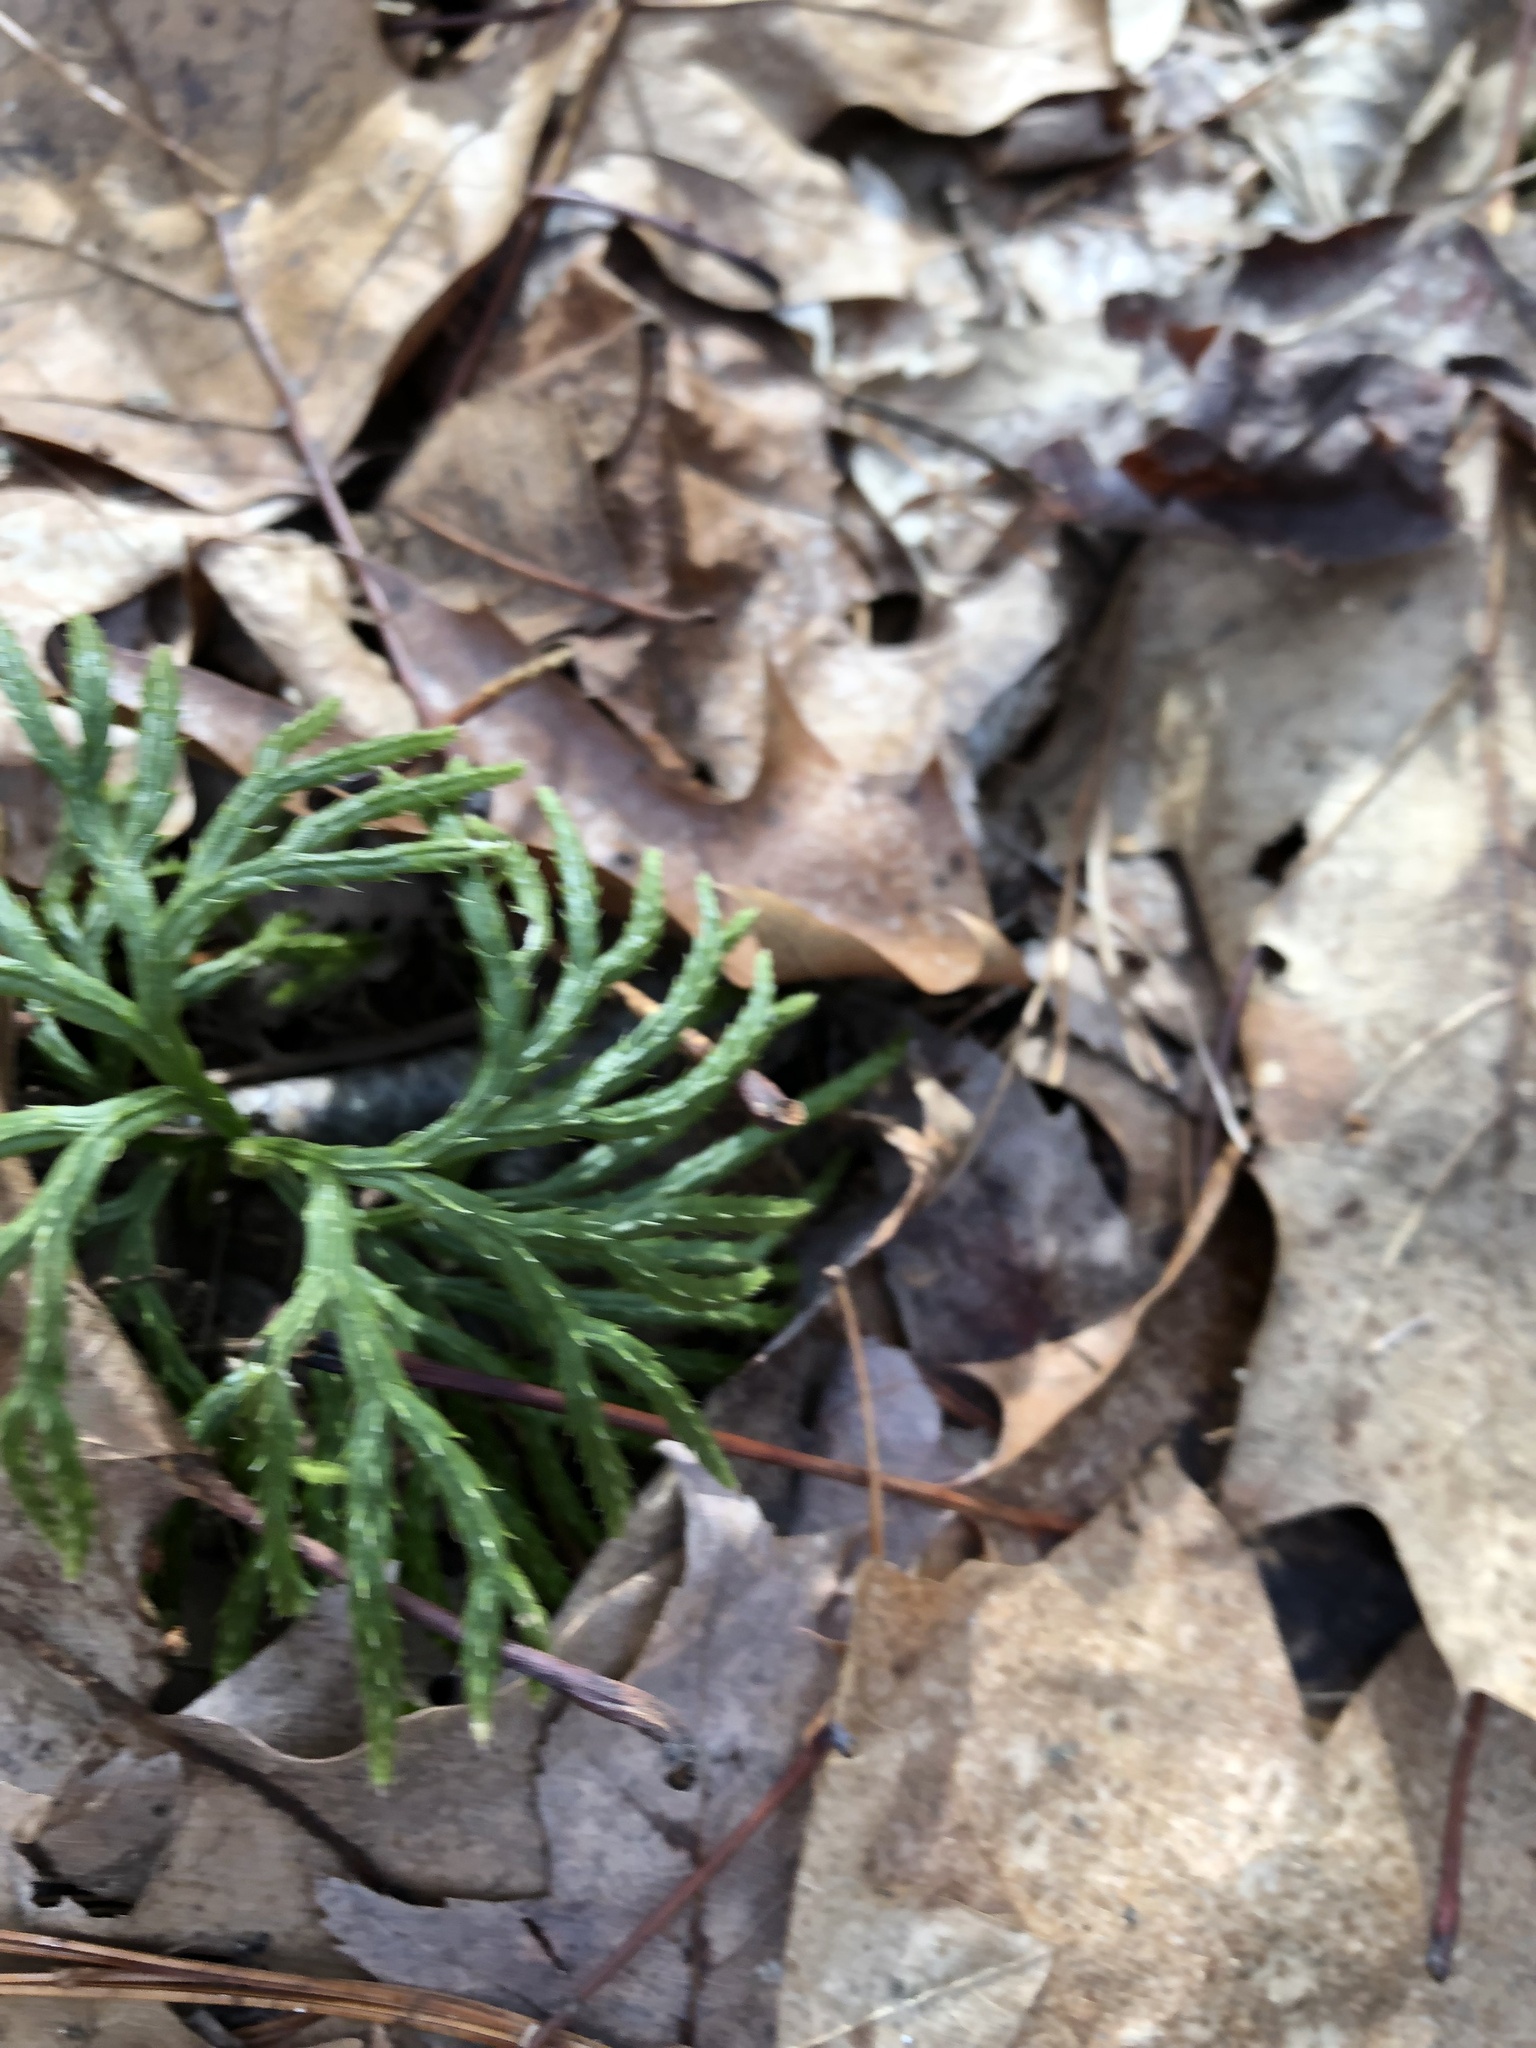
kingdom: Plantae
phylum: Tracheophyta
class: Lycopodiopsida
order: Lycopodiales
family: Lycopodiaceae
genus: Diphasiastrum
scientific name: Diphasiastrum digitatum
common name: Southern running-pine
